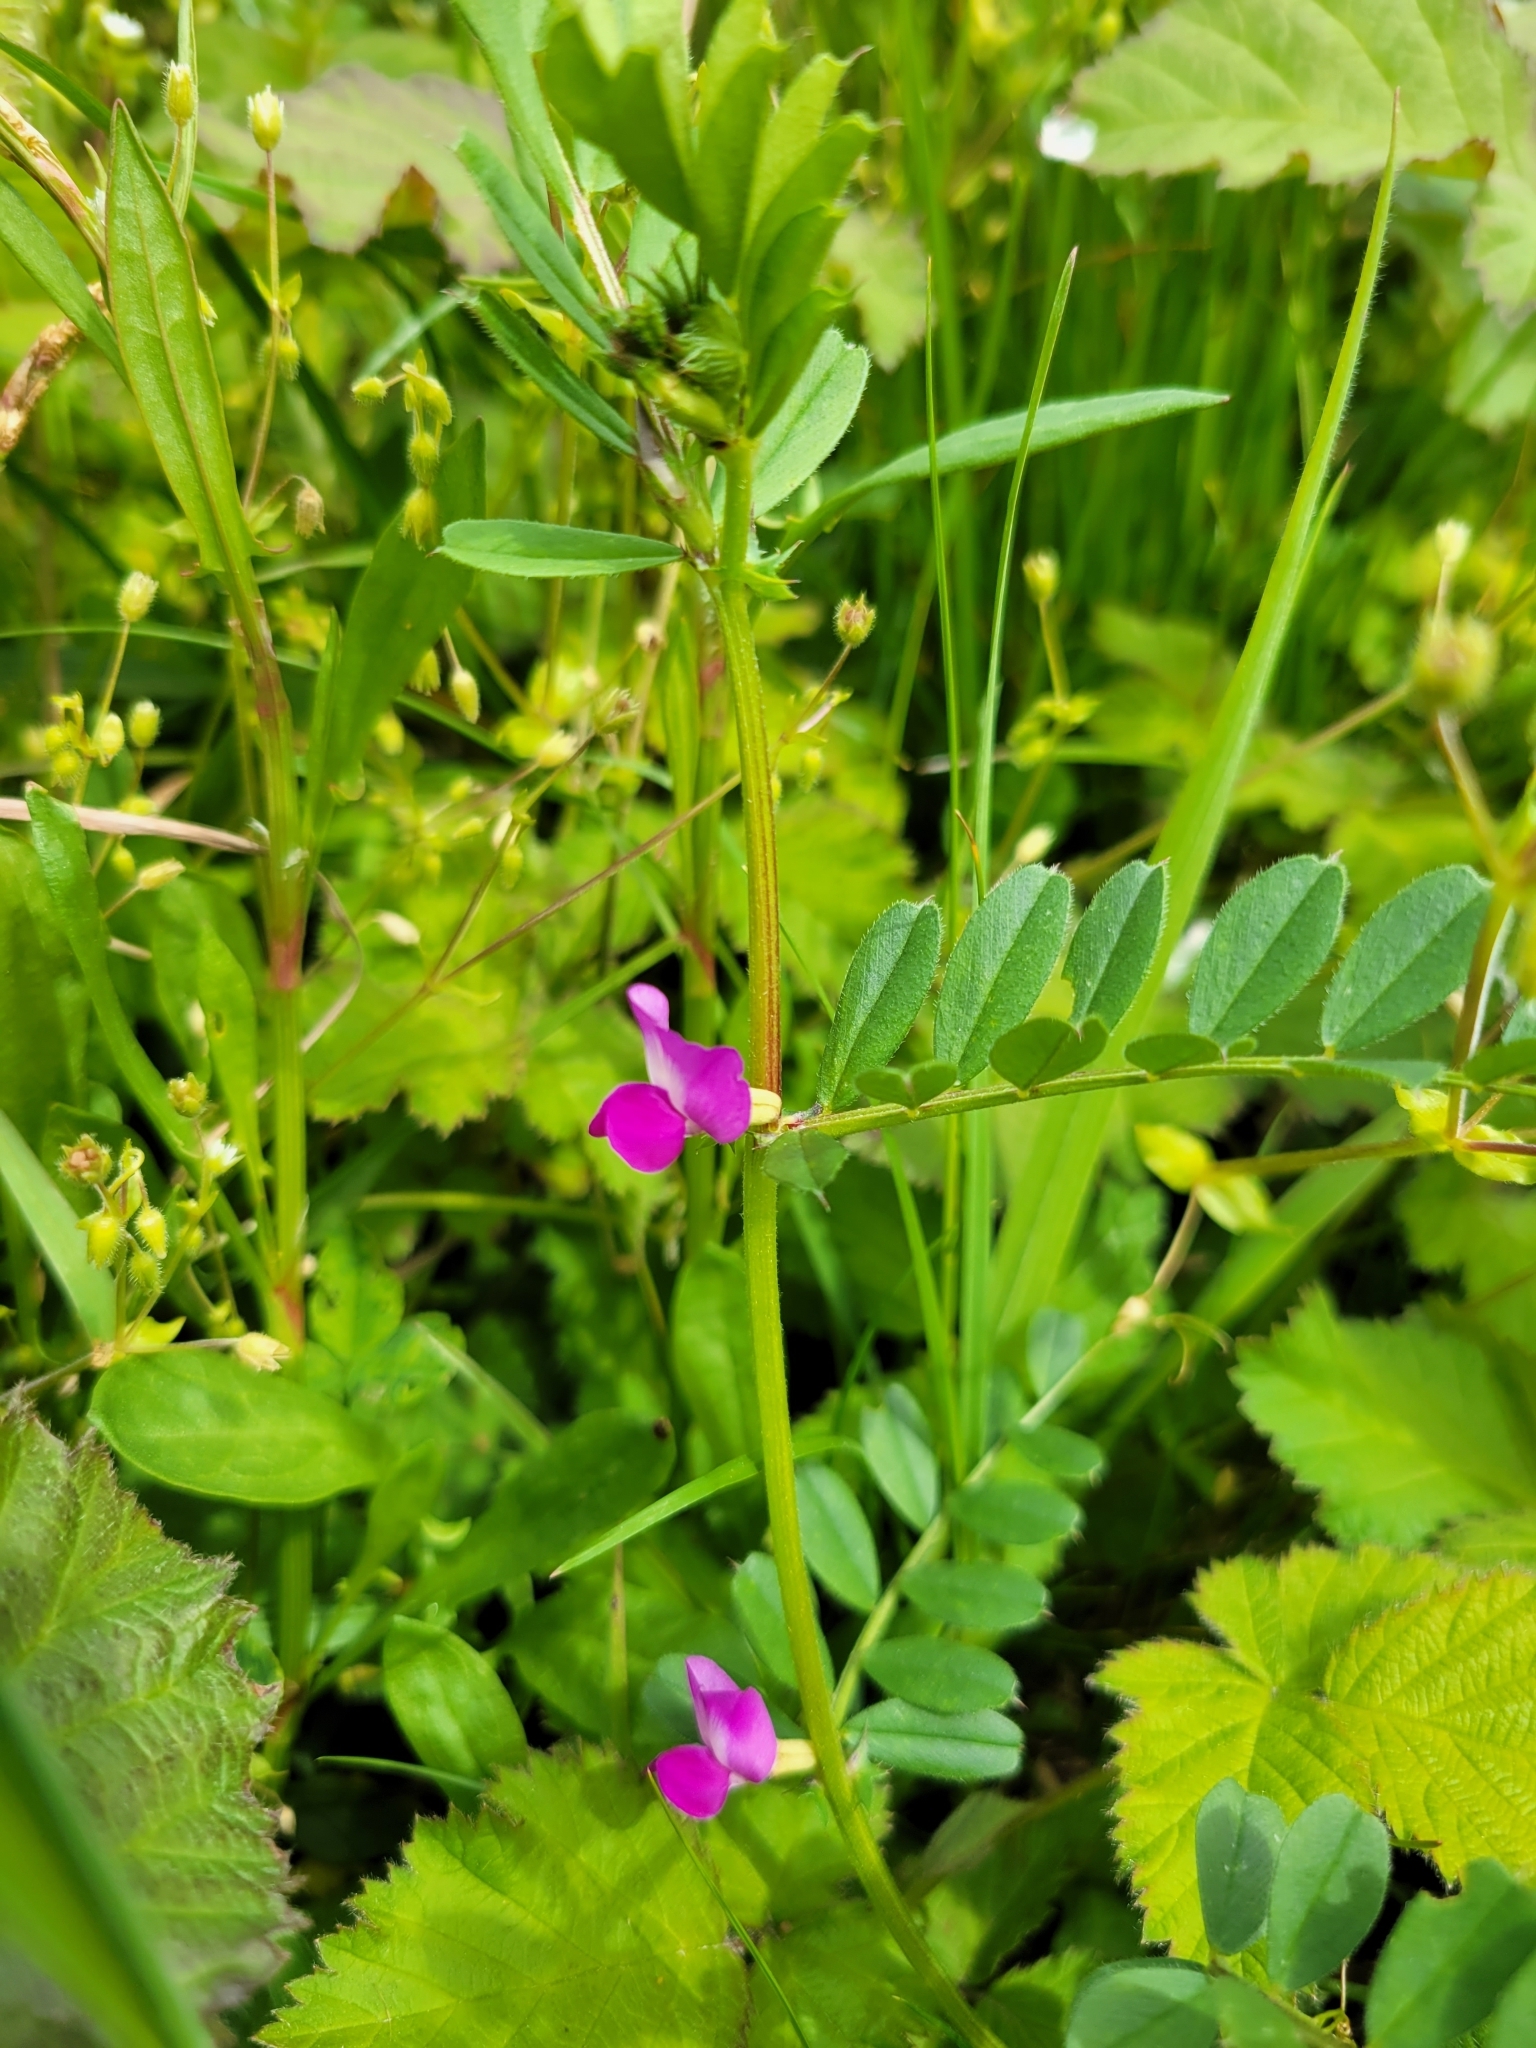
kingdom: Plantae
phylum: Tracheophyta
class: Magnoliopsida
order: Fabales
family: Fabaceae
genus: Vicia
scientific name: Vicia sativa
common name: Garden vetch
